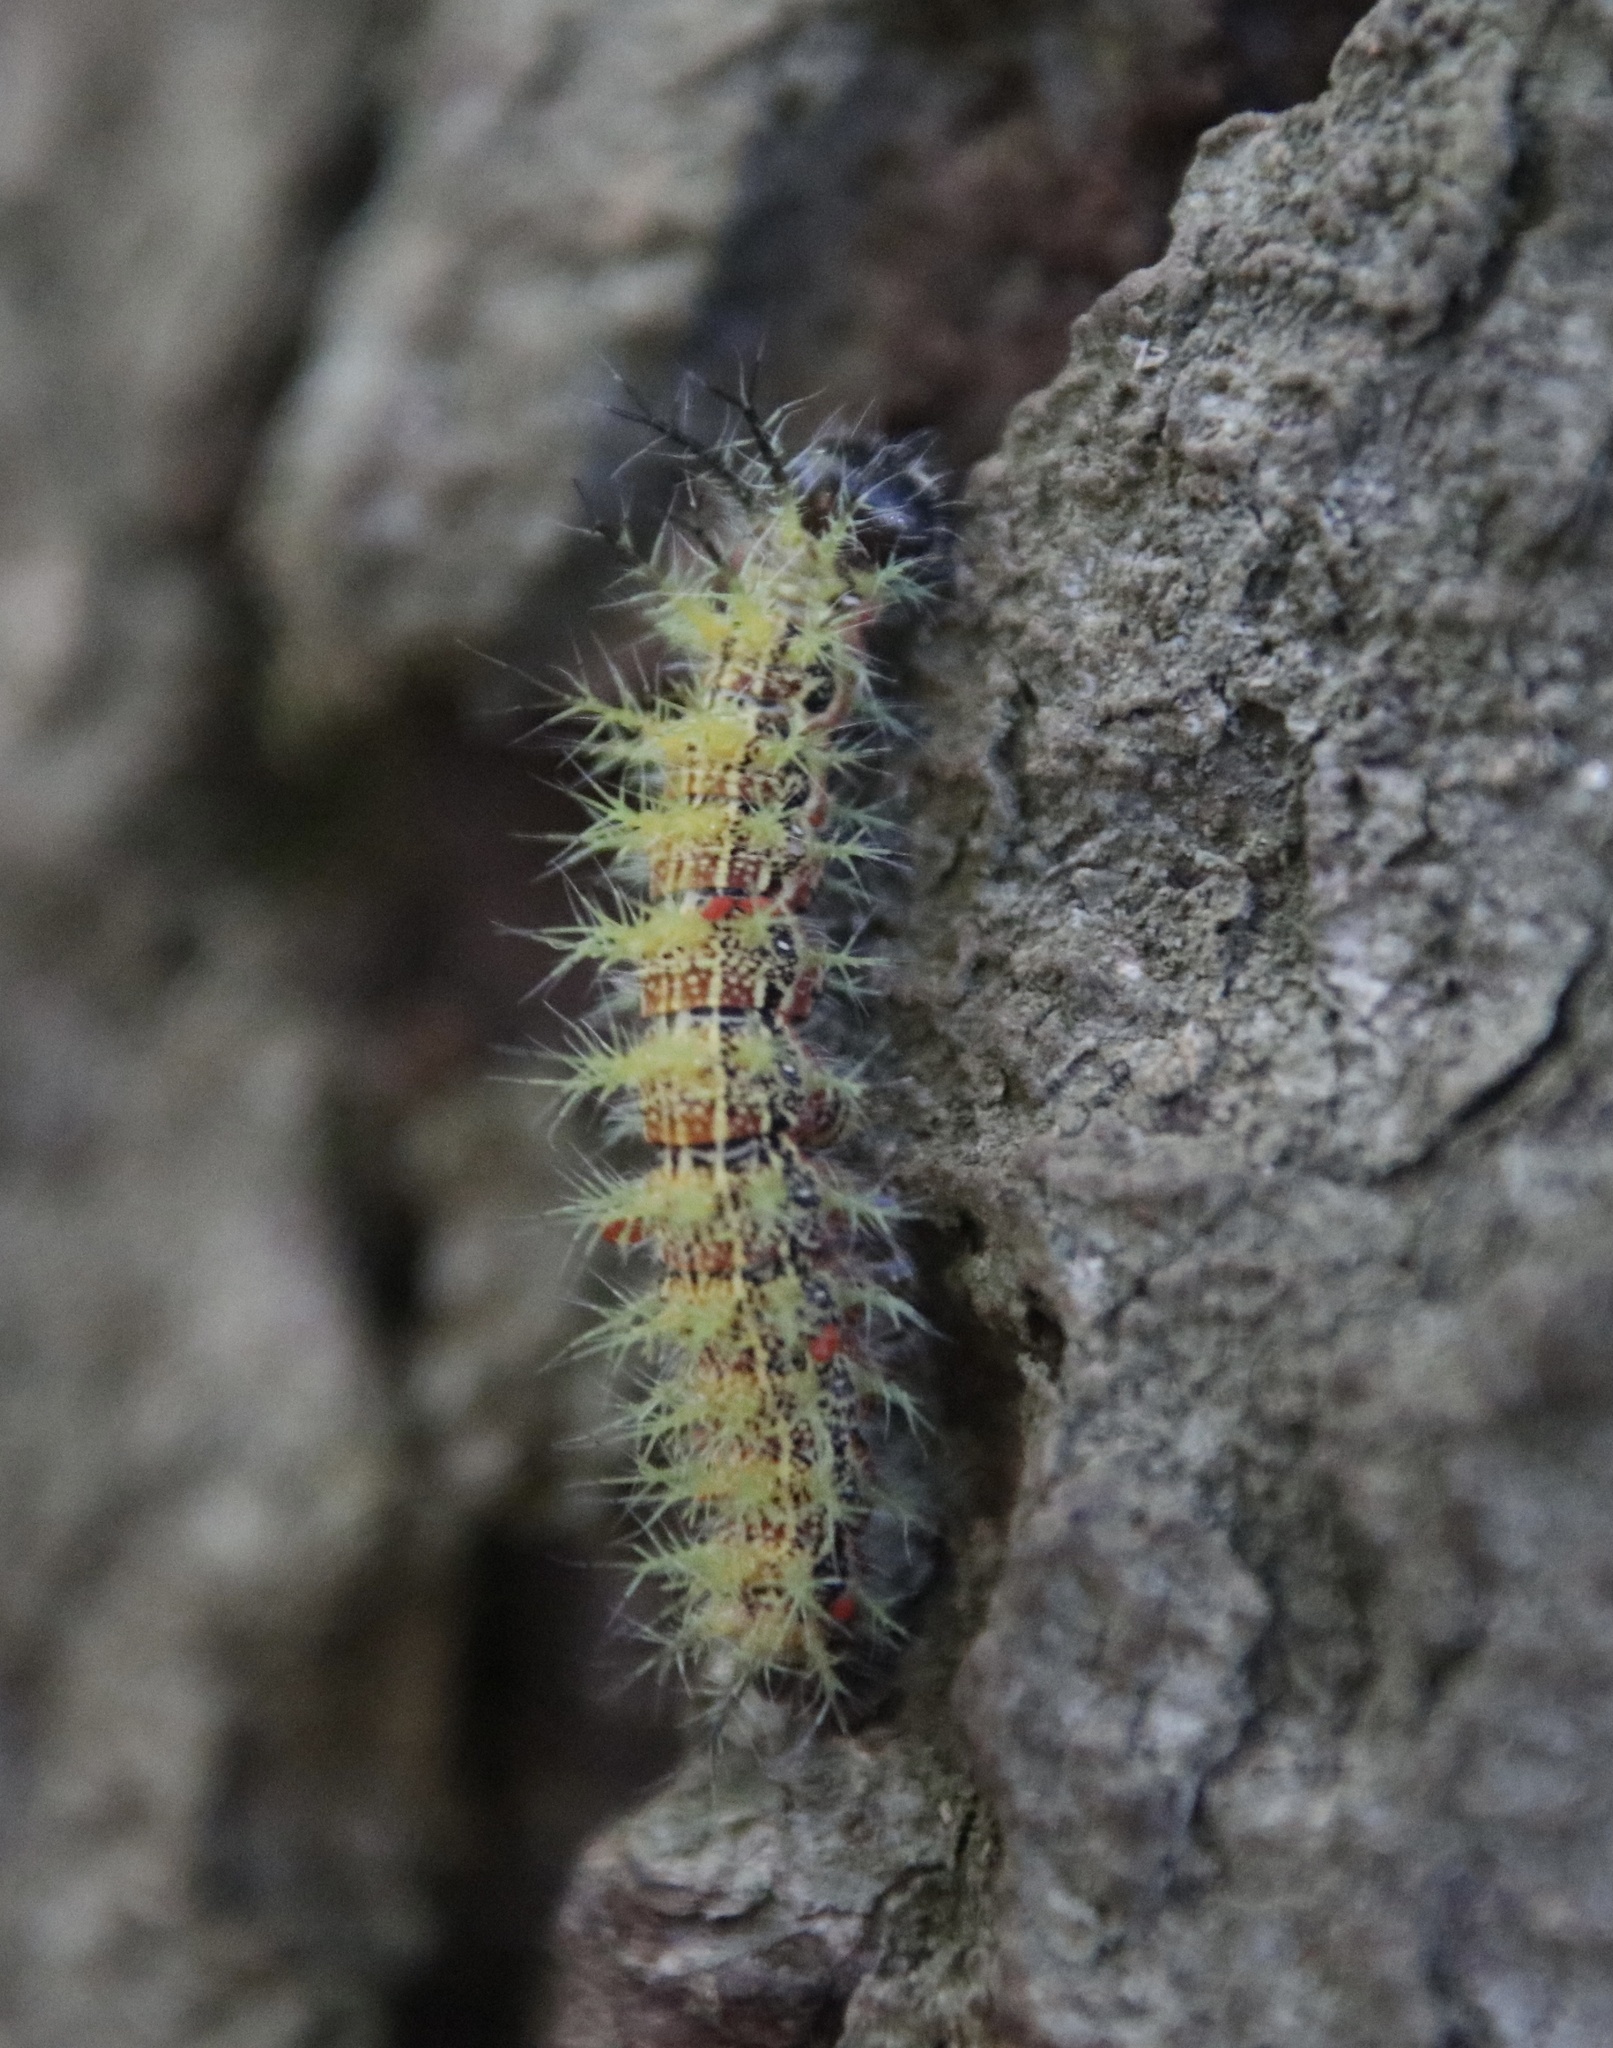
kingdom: Animalia
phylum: Arthropoda
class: Insecta
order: Lepidoptera
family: Saturniidae
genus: Ormiscodes
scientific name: Ormiscodes amphinome
